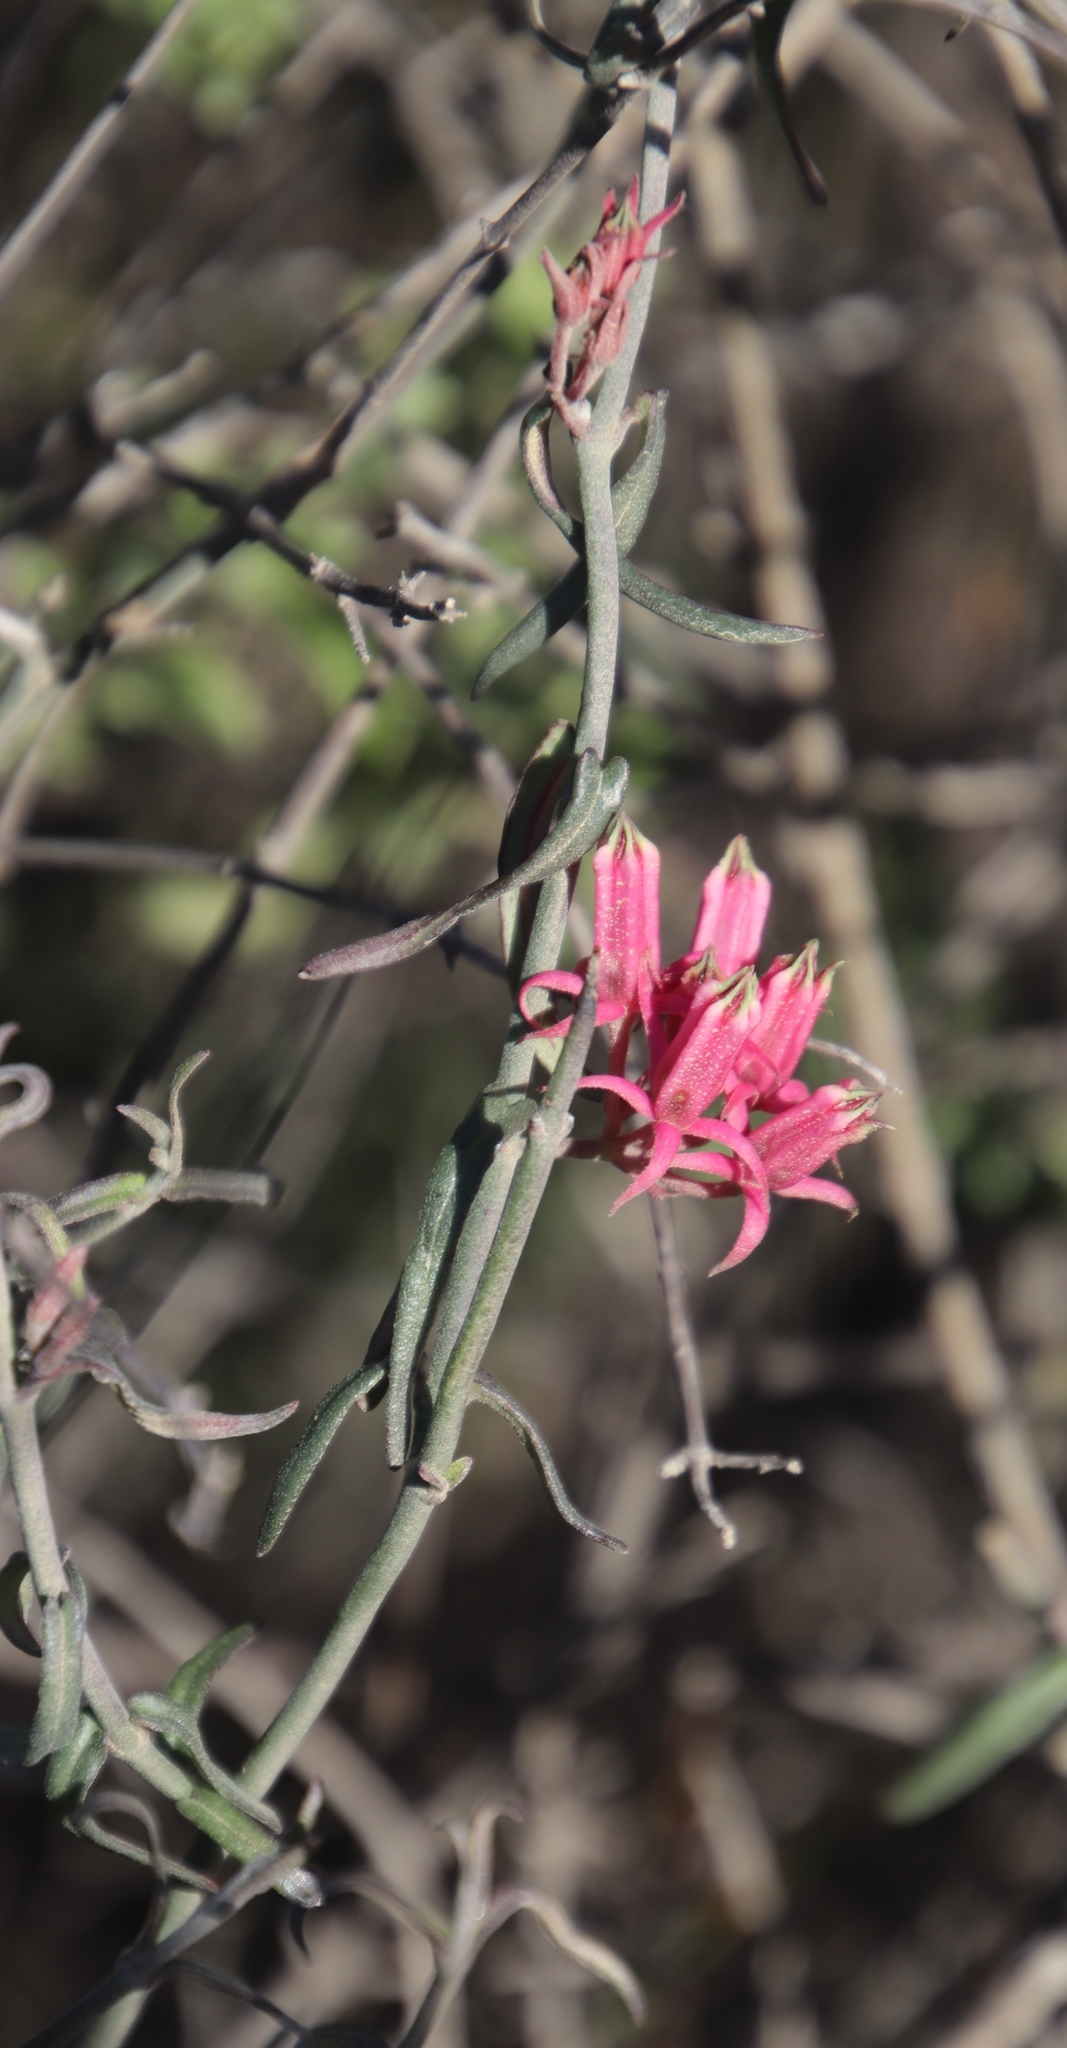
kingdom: Plantae
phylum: Tracheophyta
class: Magnoliopsida
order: Gentianales
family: Apocynaceae
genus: Microloma
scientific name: Microloma sagittatum
